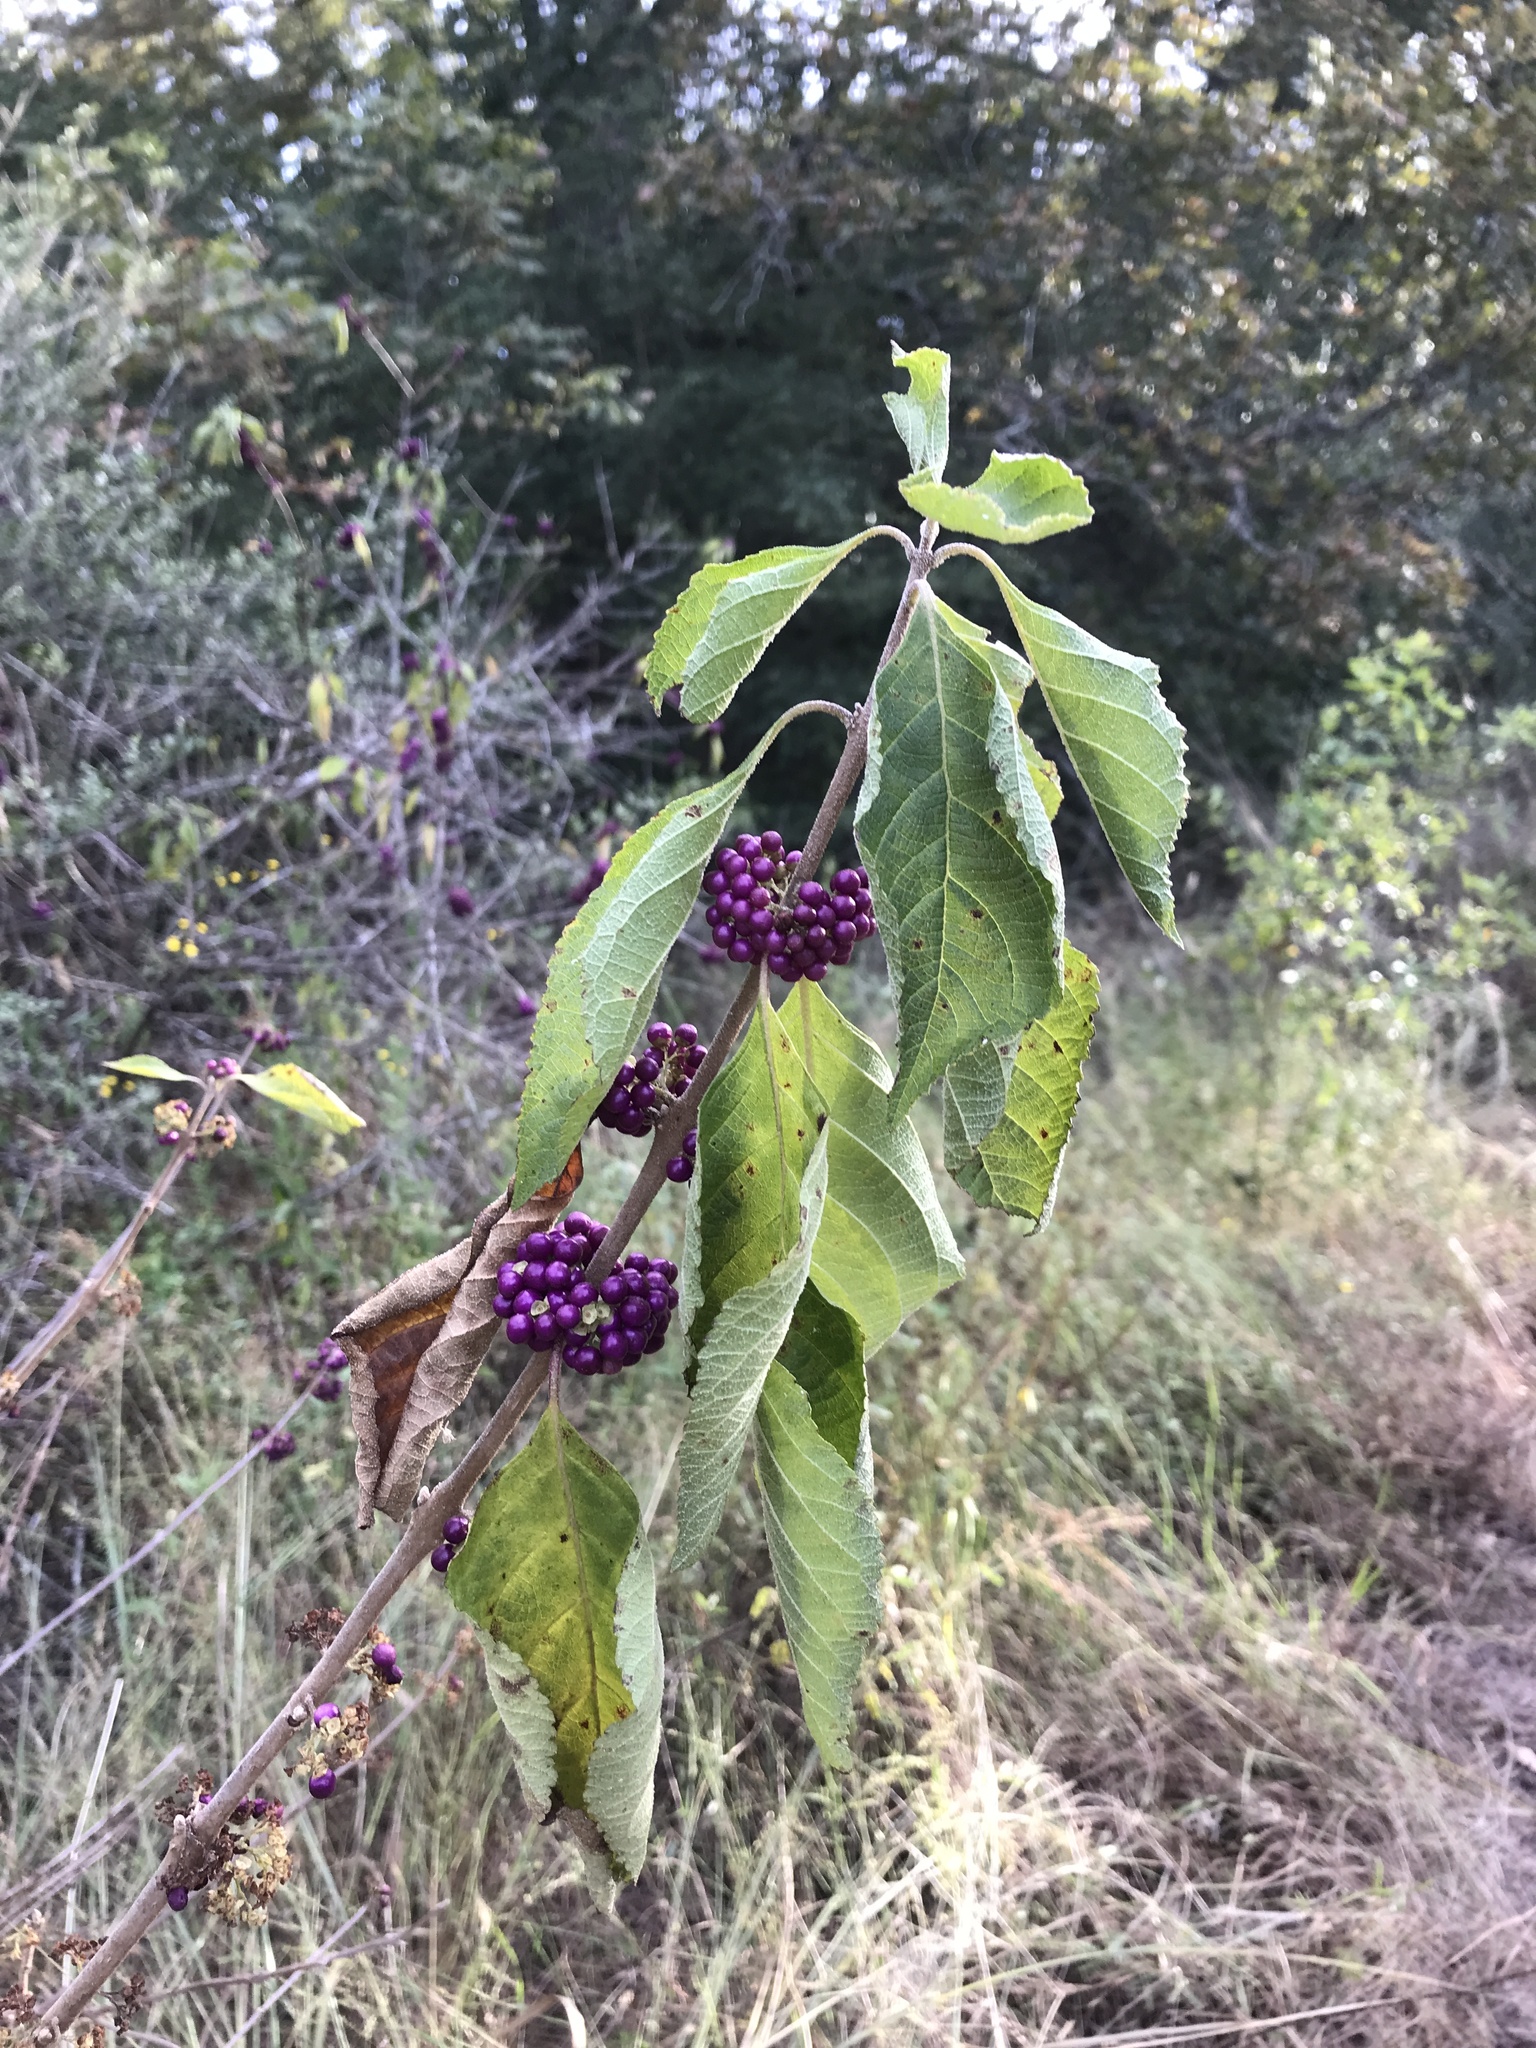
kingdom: Plantae
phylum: Tracheophyta
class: Magnoliopsida
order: Lamiales
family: Lamiaceae
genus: Callicarpa
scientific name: Callicarpa americana
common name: American beautyberry
